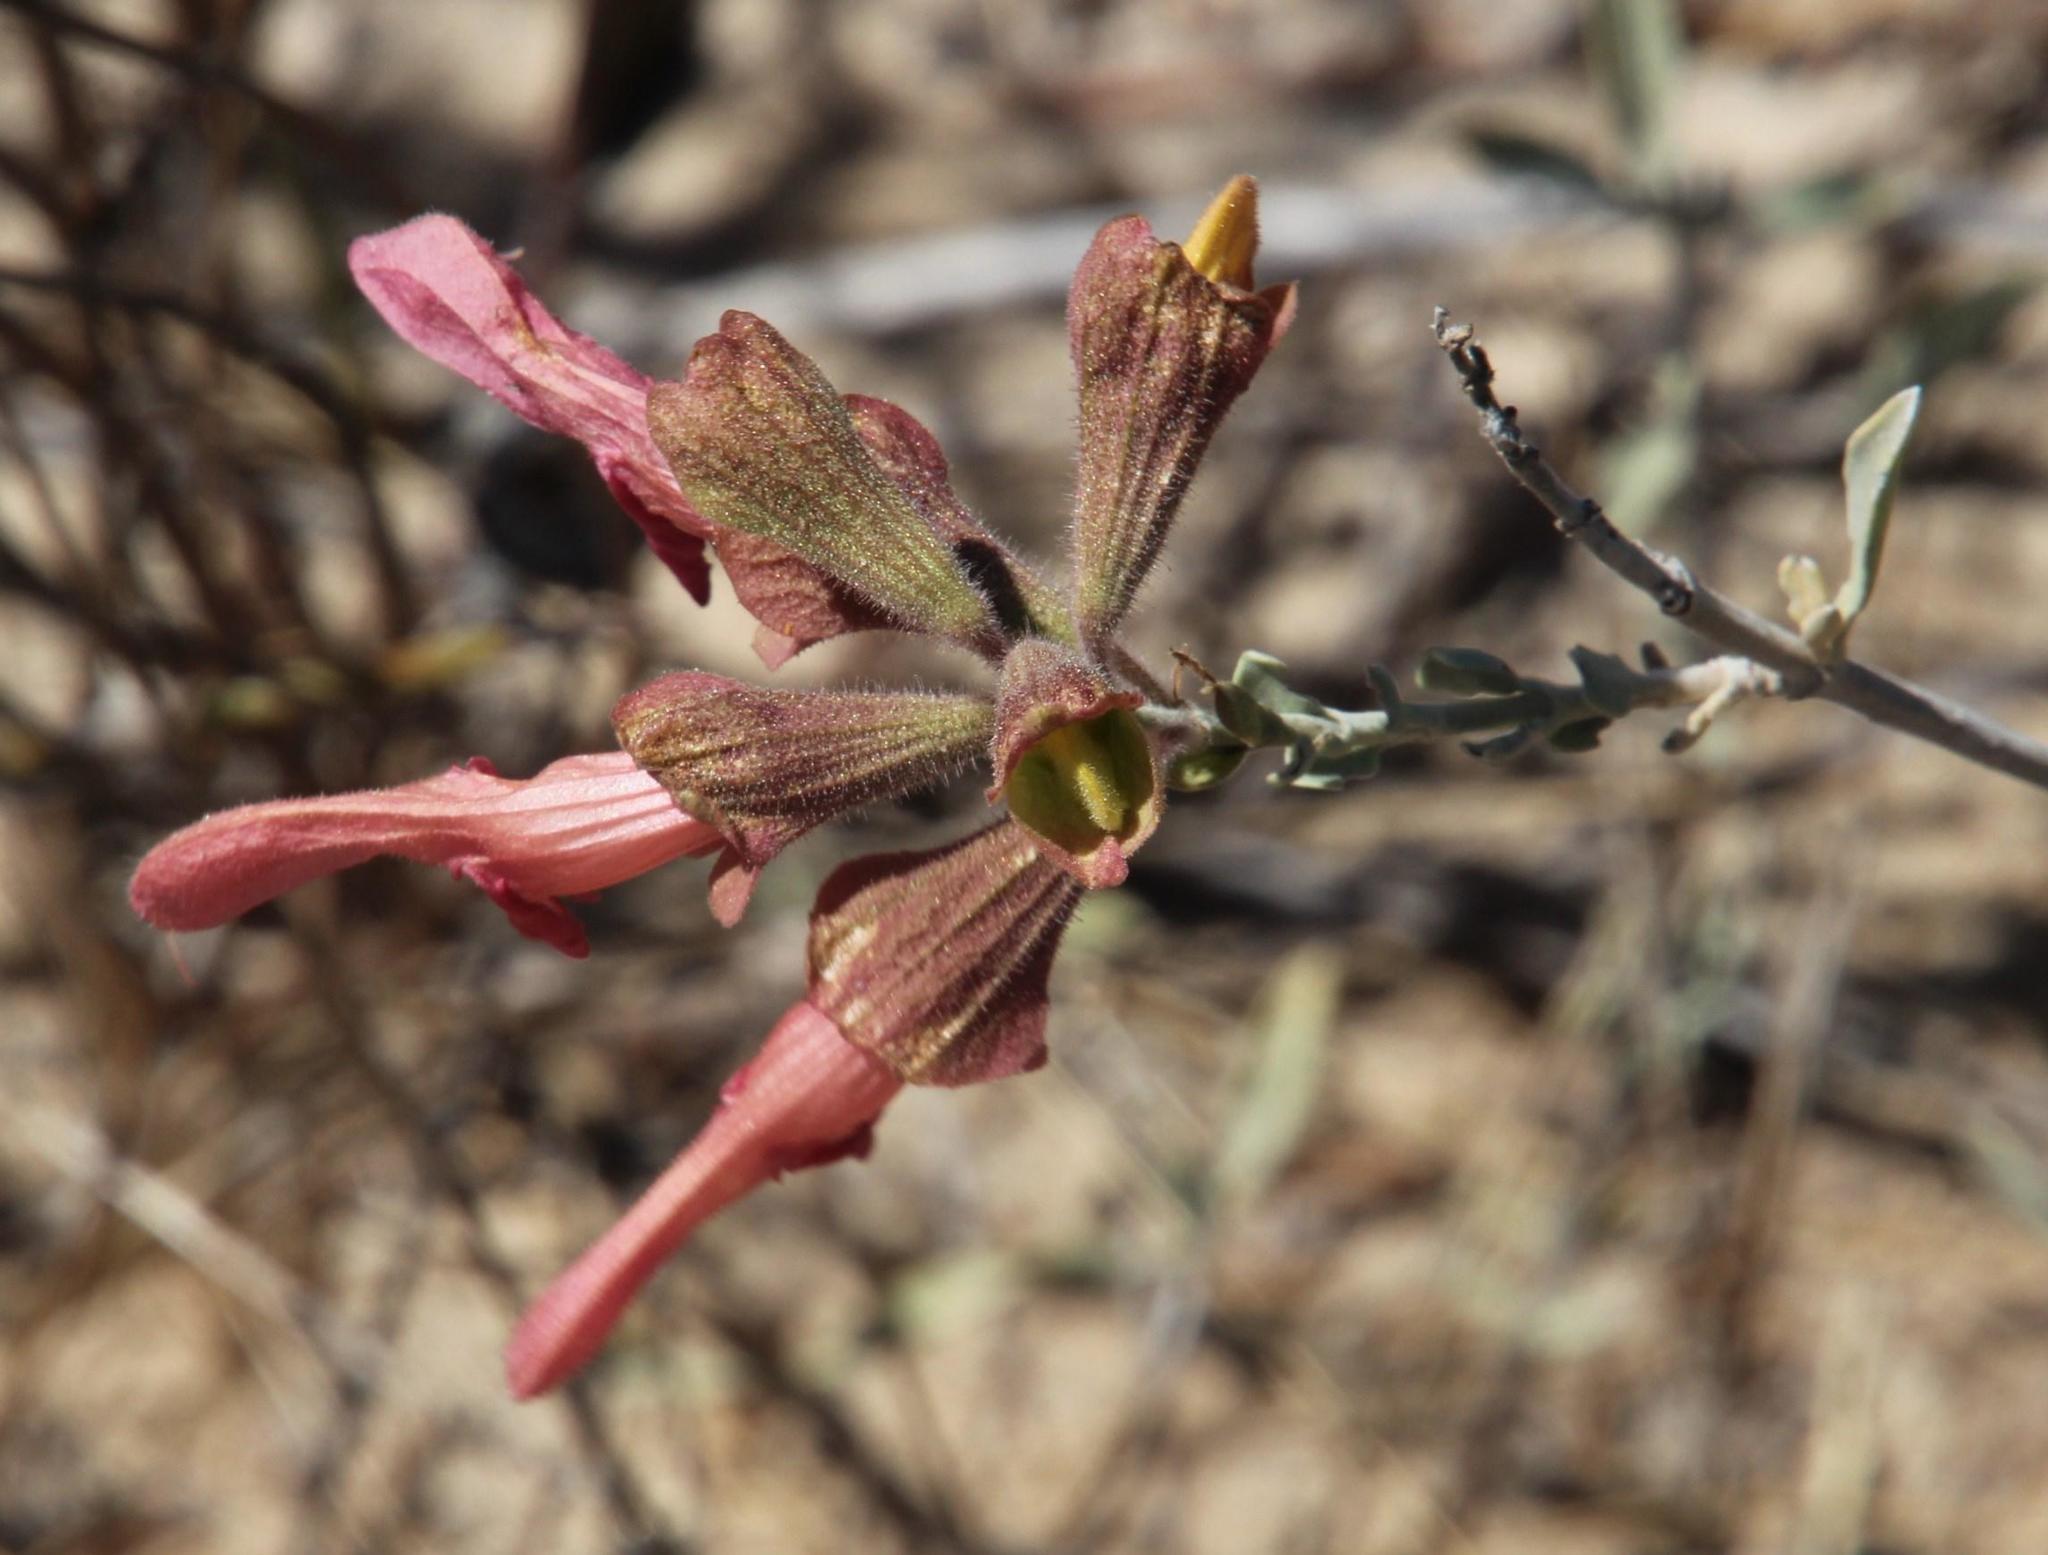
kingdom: Plantae
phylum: Tracheophyta
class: Magnoliopsida
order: Lamiales
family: Lamiaceae
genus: Salvia
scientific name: Salvia lanceolata
